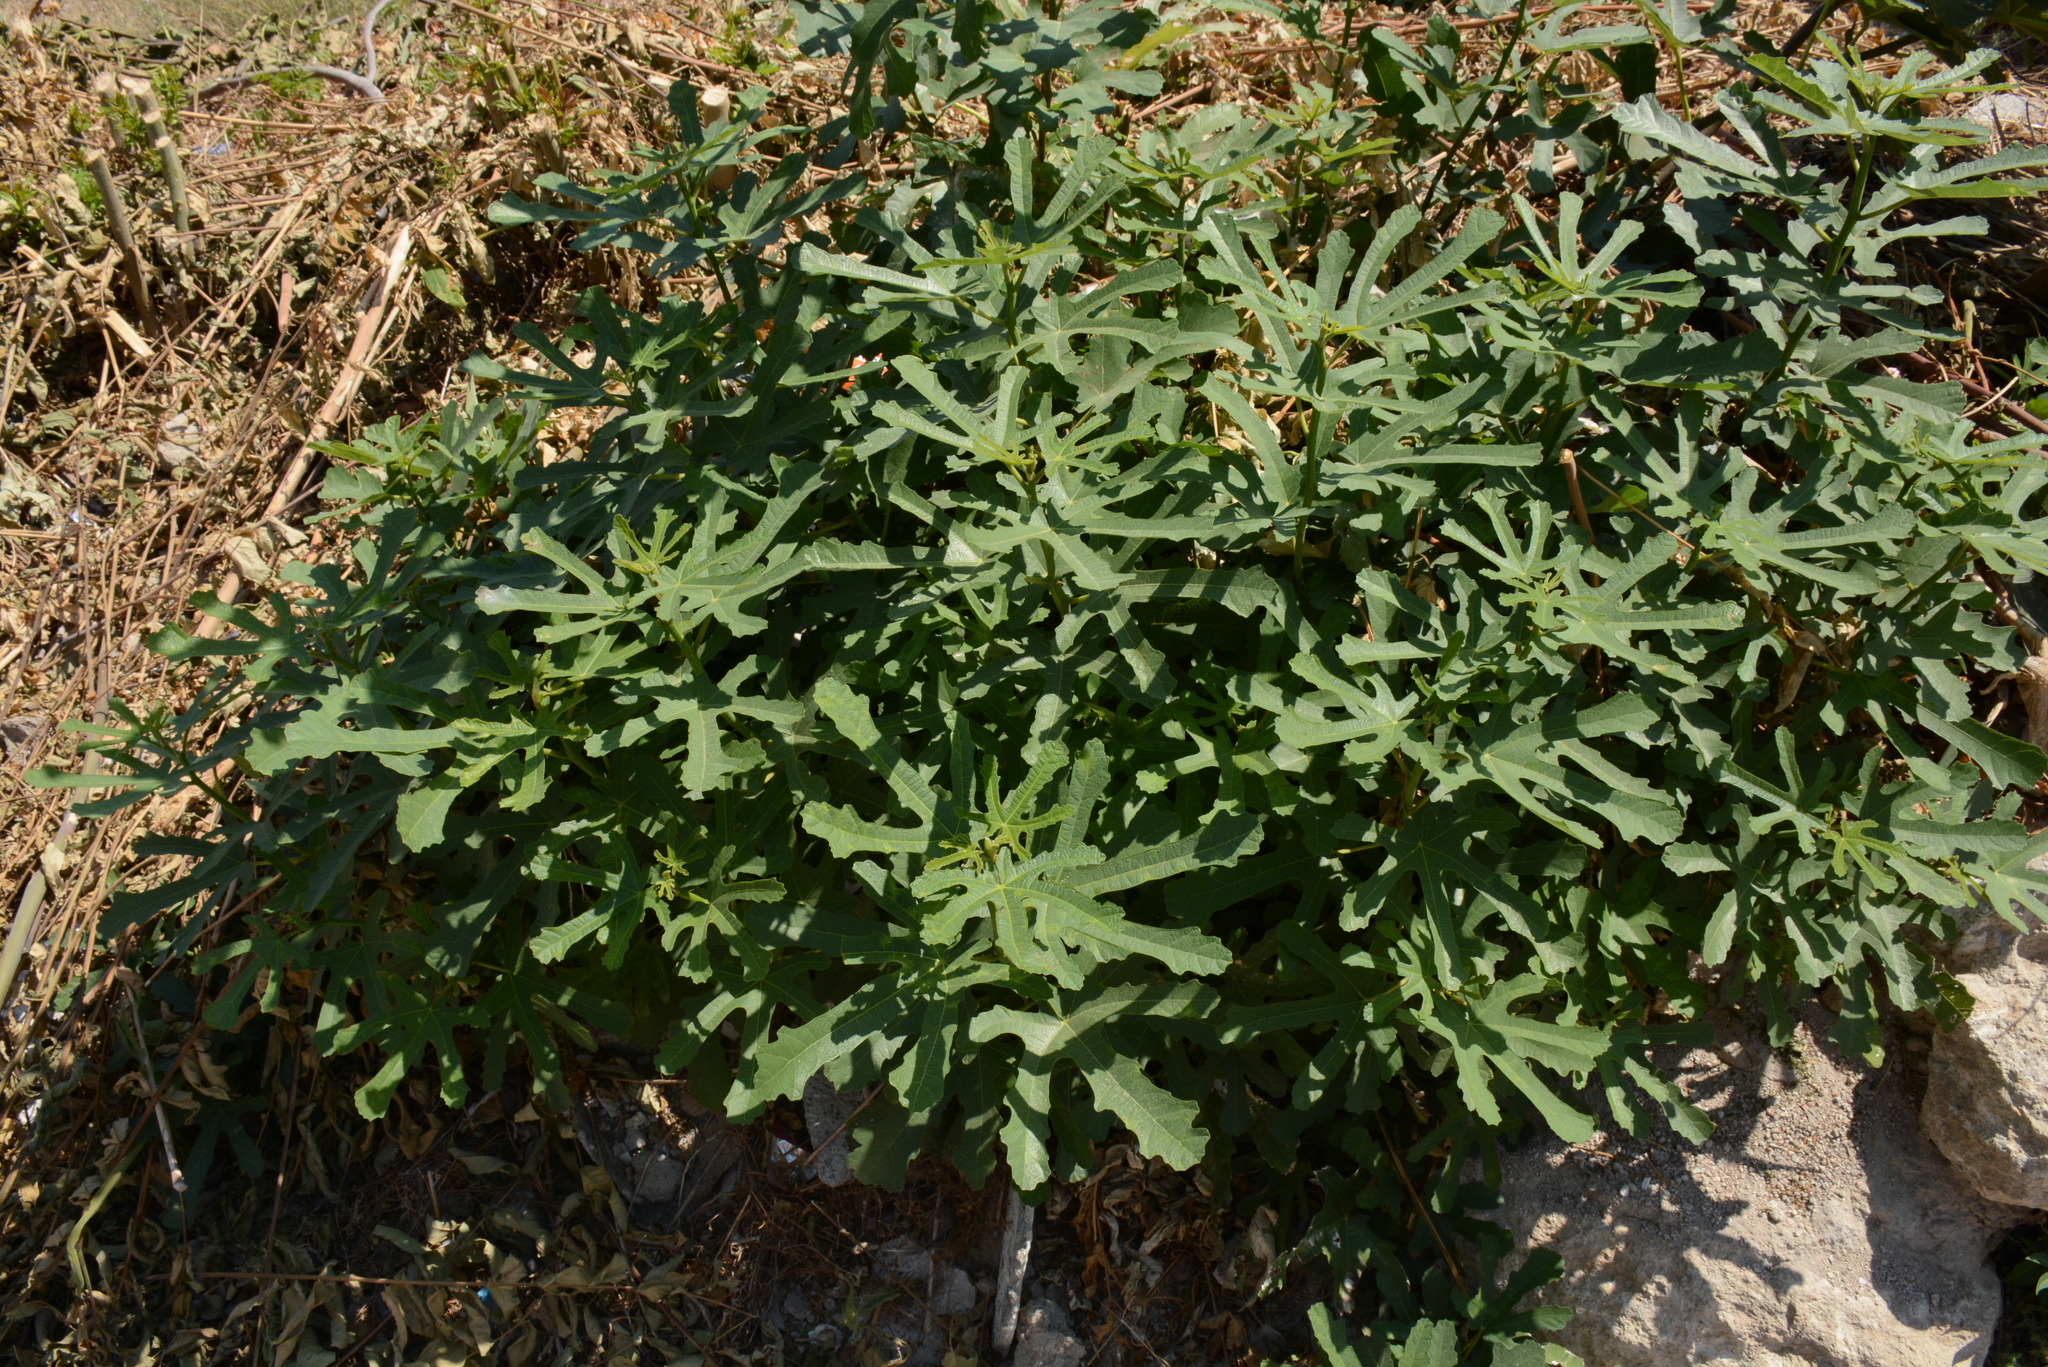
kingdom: Plantae
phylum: Tracheophyta
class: Magnoliopsida
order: Rosales
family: Moraceae
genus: Ficus
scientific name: Ficus carica
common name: Fig
